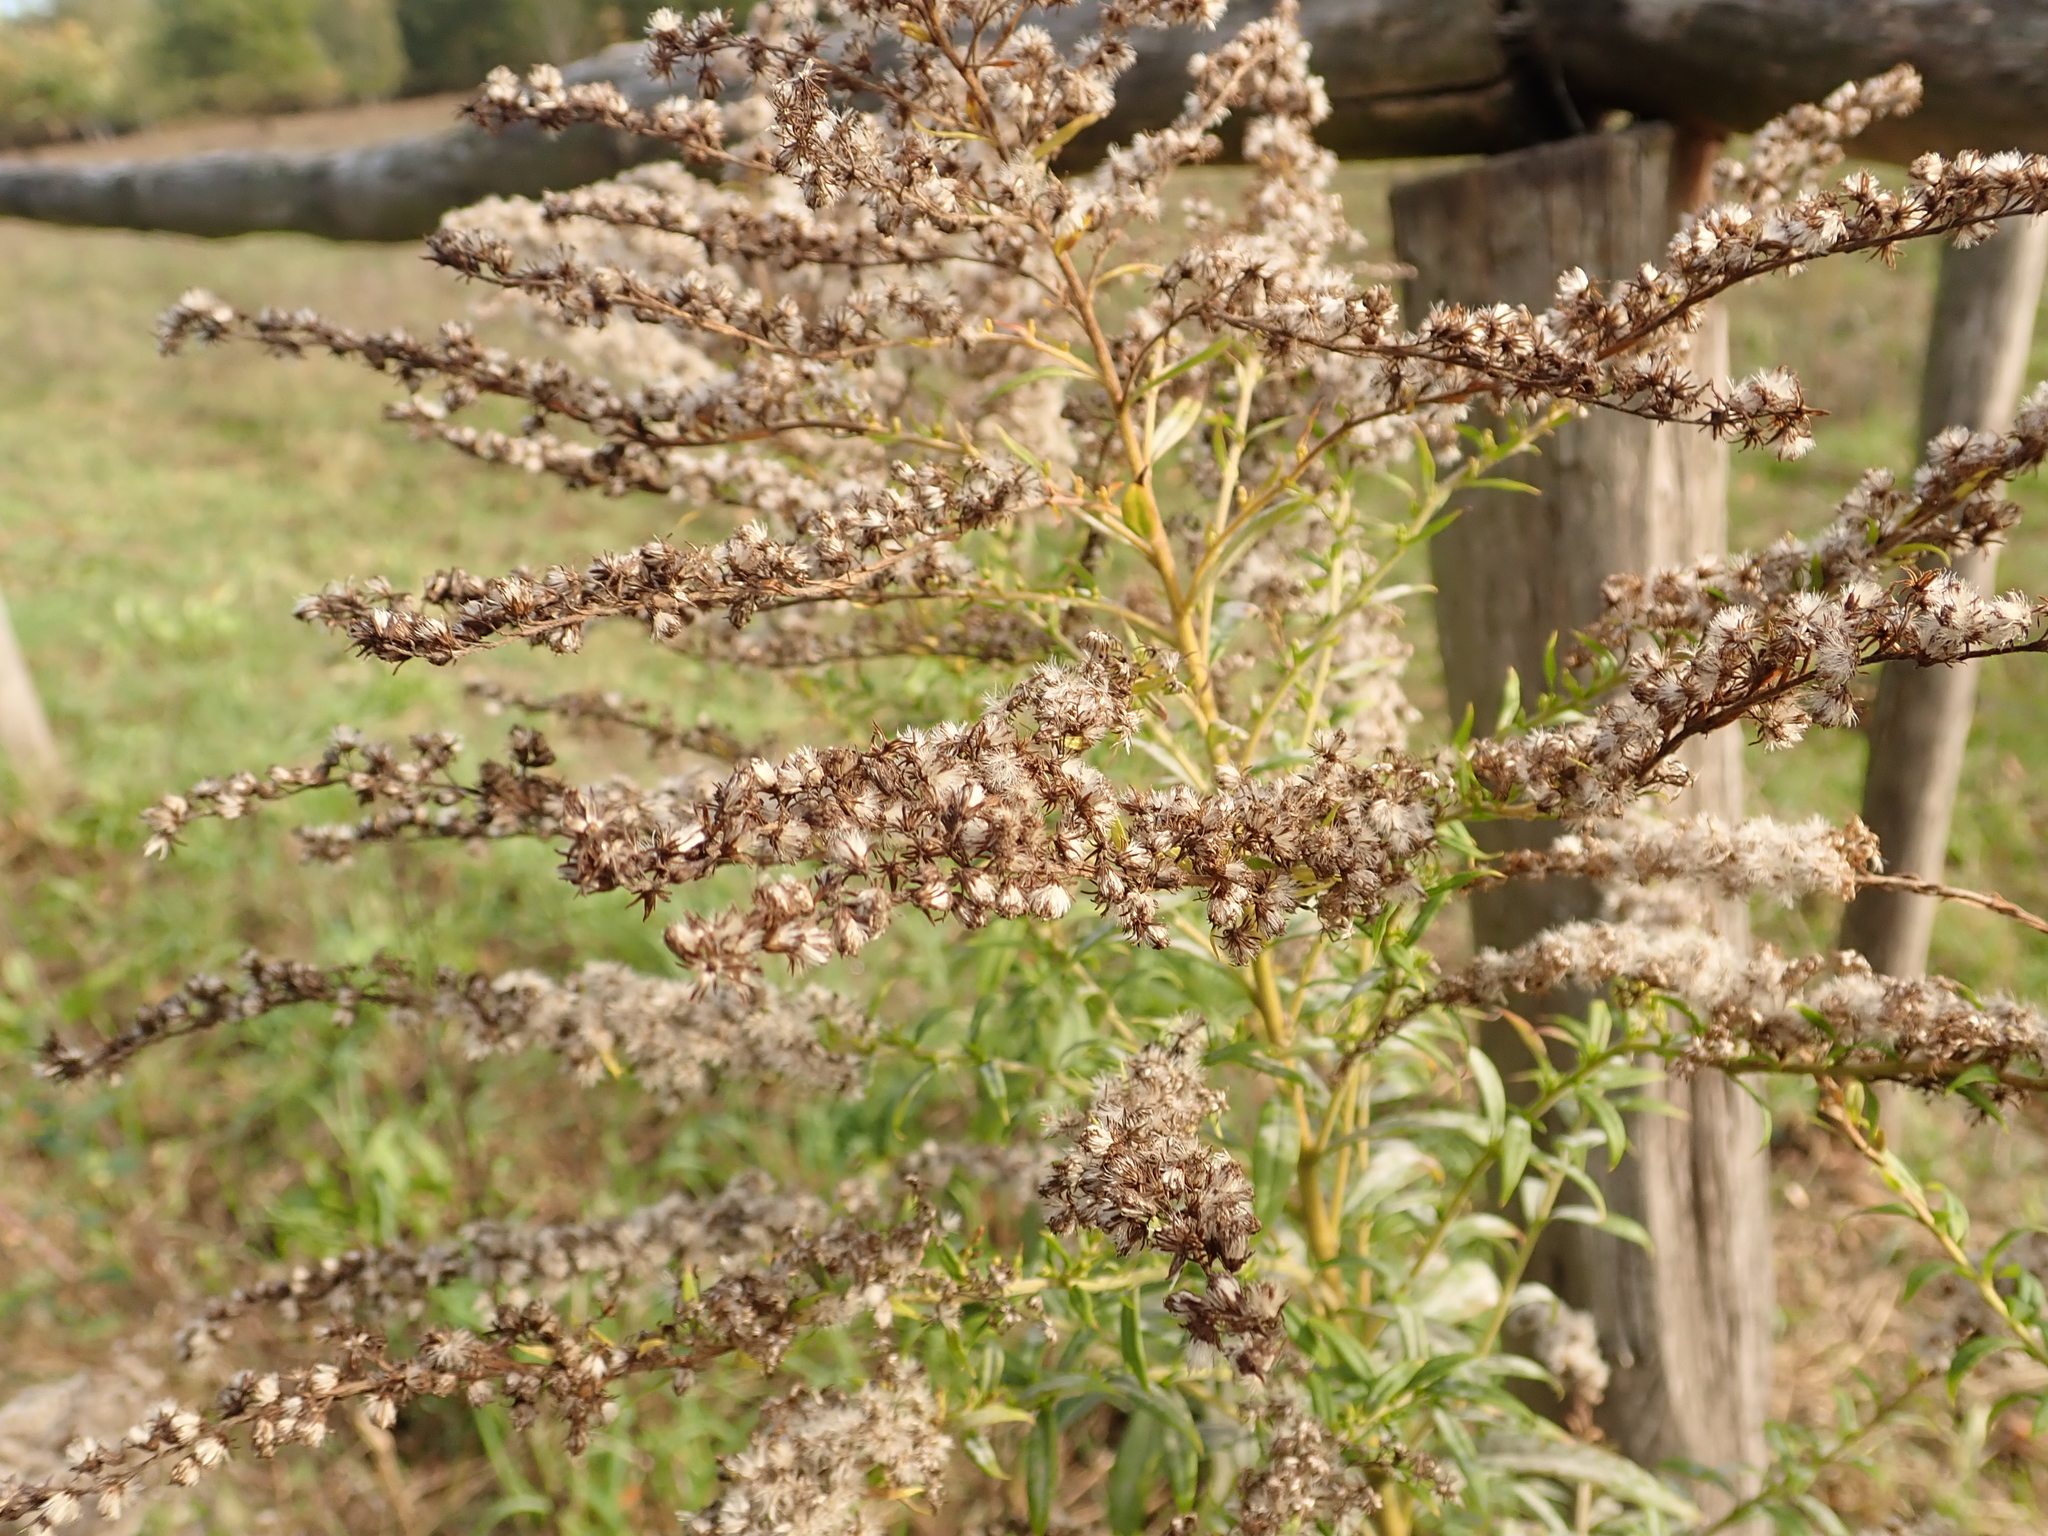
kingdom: Plantae
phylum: Tracheophyta
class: Magnoliopsida
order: Asterales
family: Asteraceae
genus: Solidago
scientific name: Solidago canadensis
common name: Canada goldenrod
